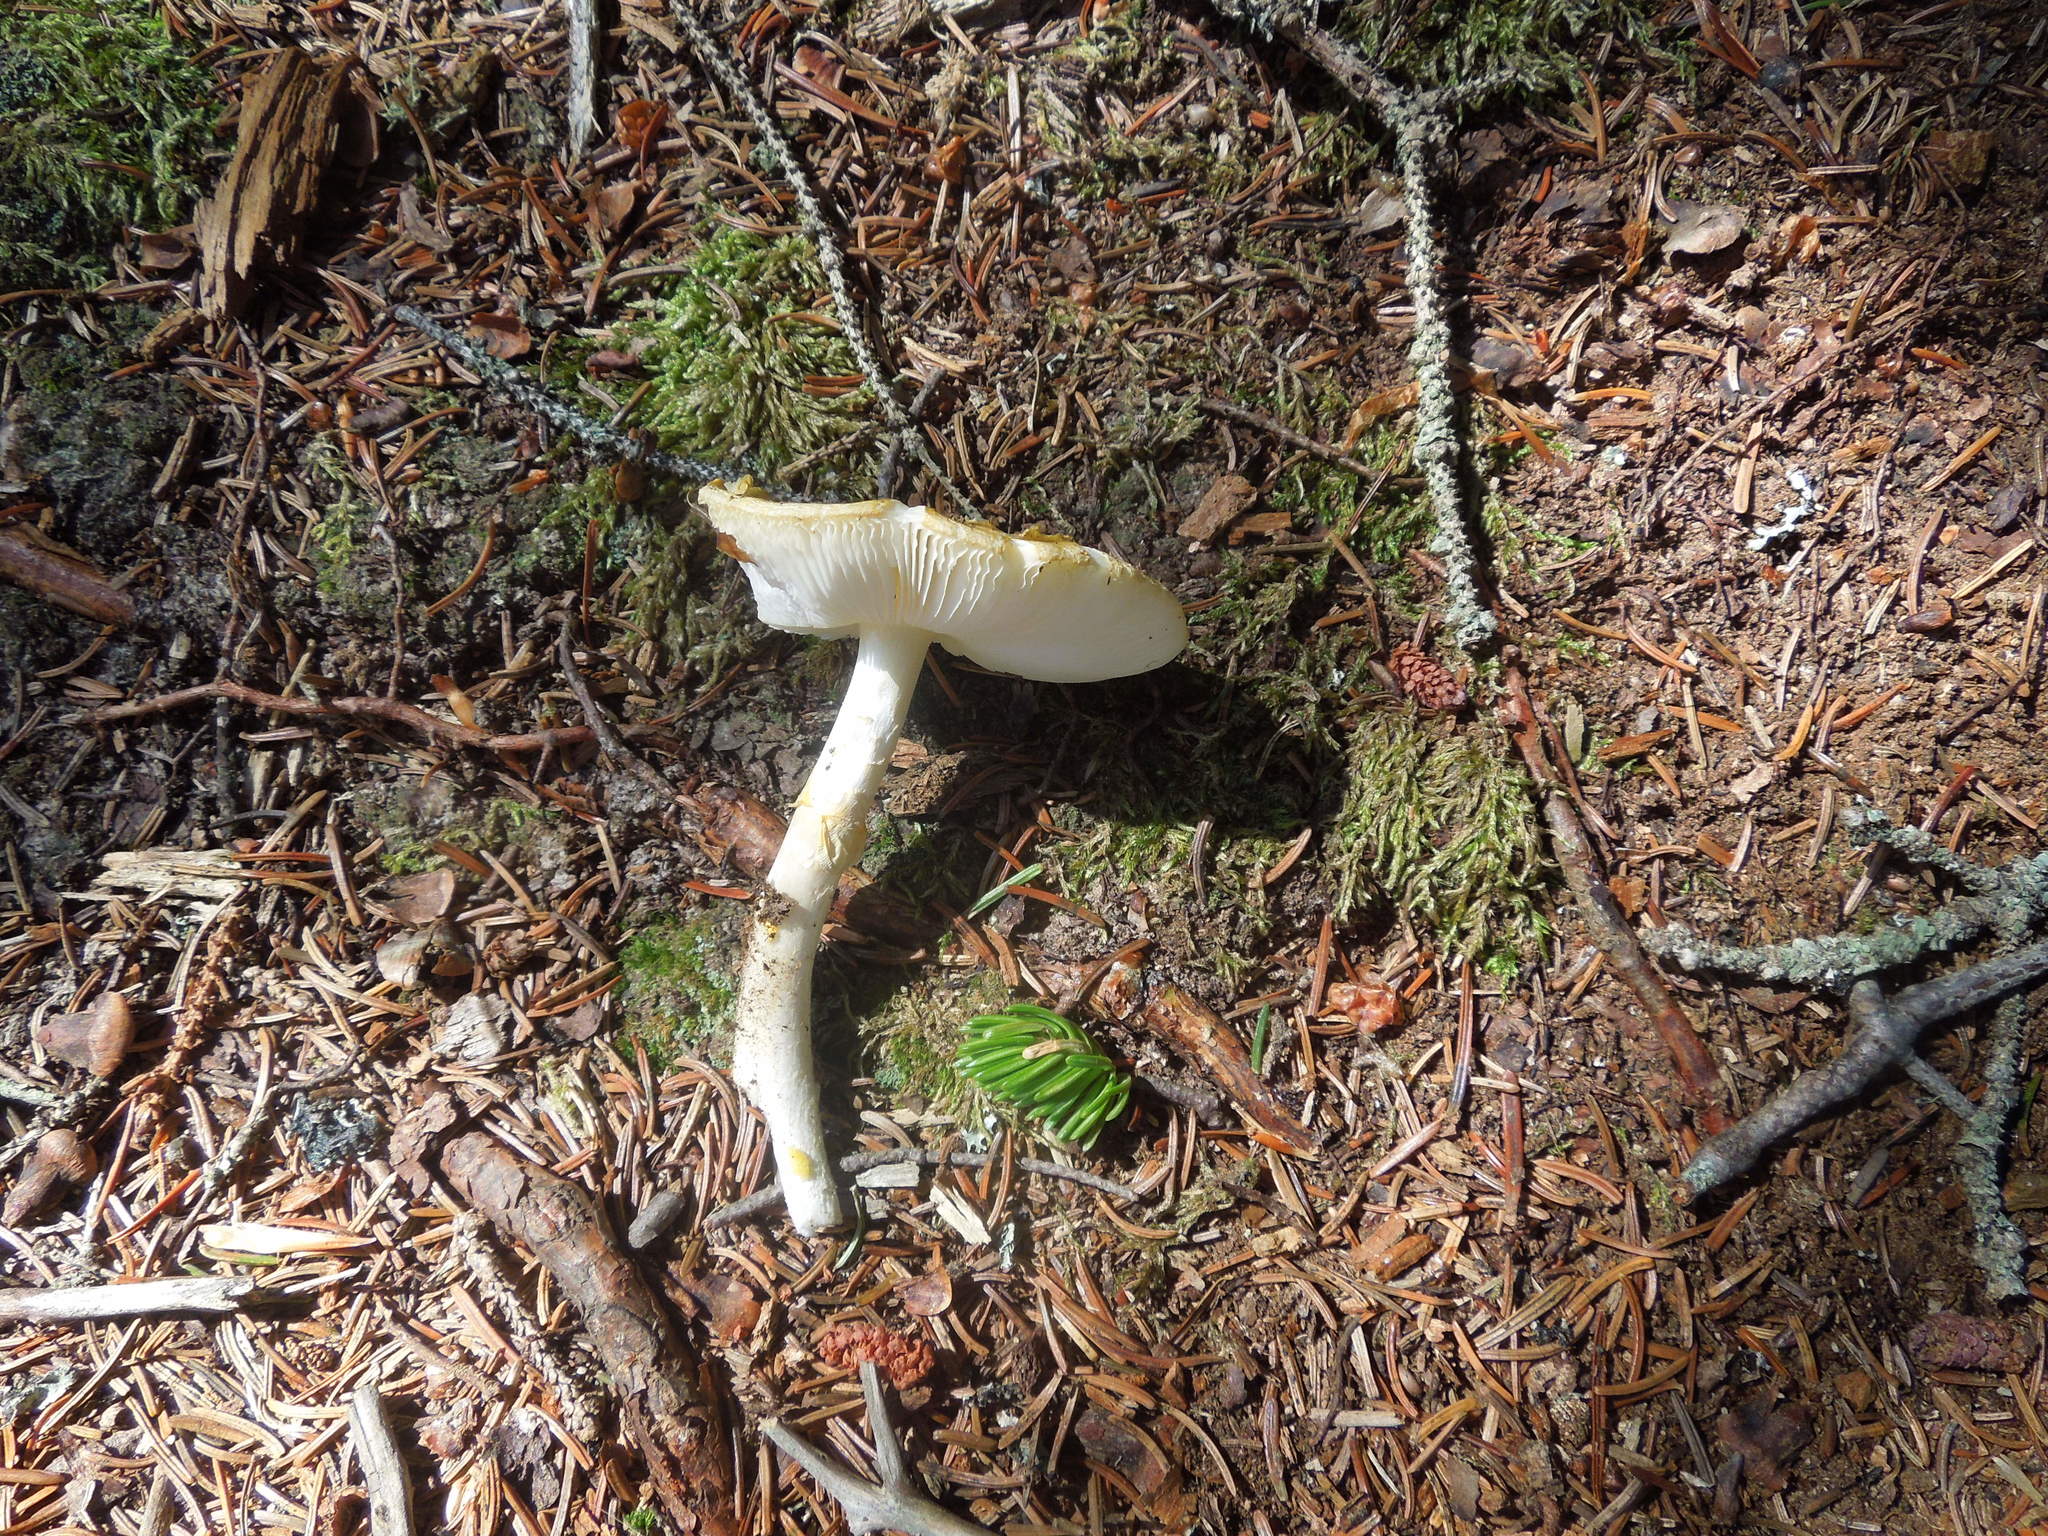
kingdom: Fungi
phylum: Basidiomycota
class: Agaricomycetes
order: Agaricales
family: Tricholomataceae
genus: Tricholoma
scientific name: Tricholoma equestre
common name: Yellow knight
